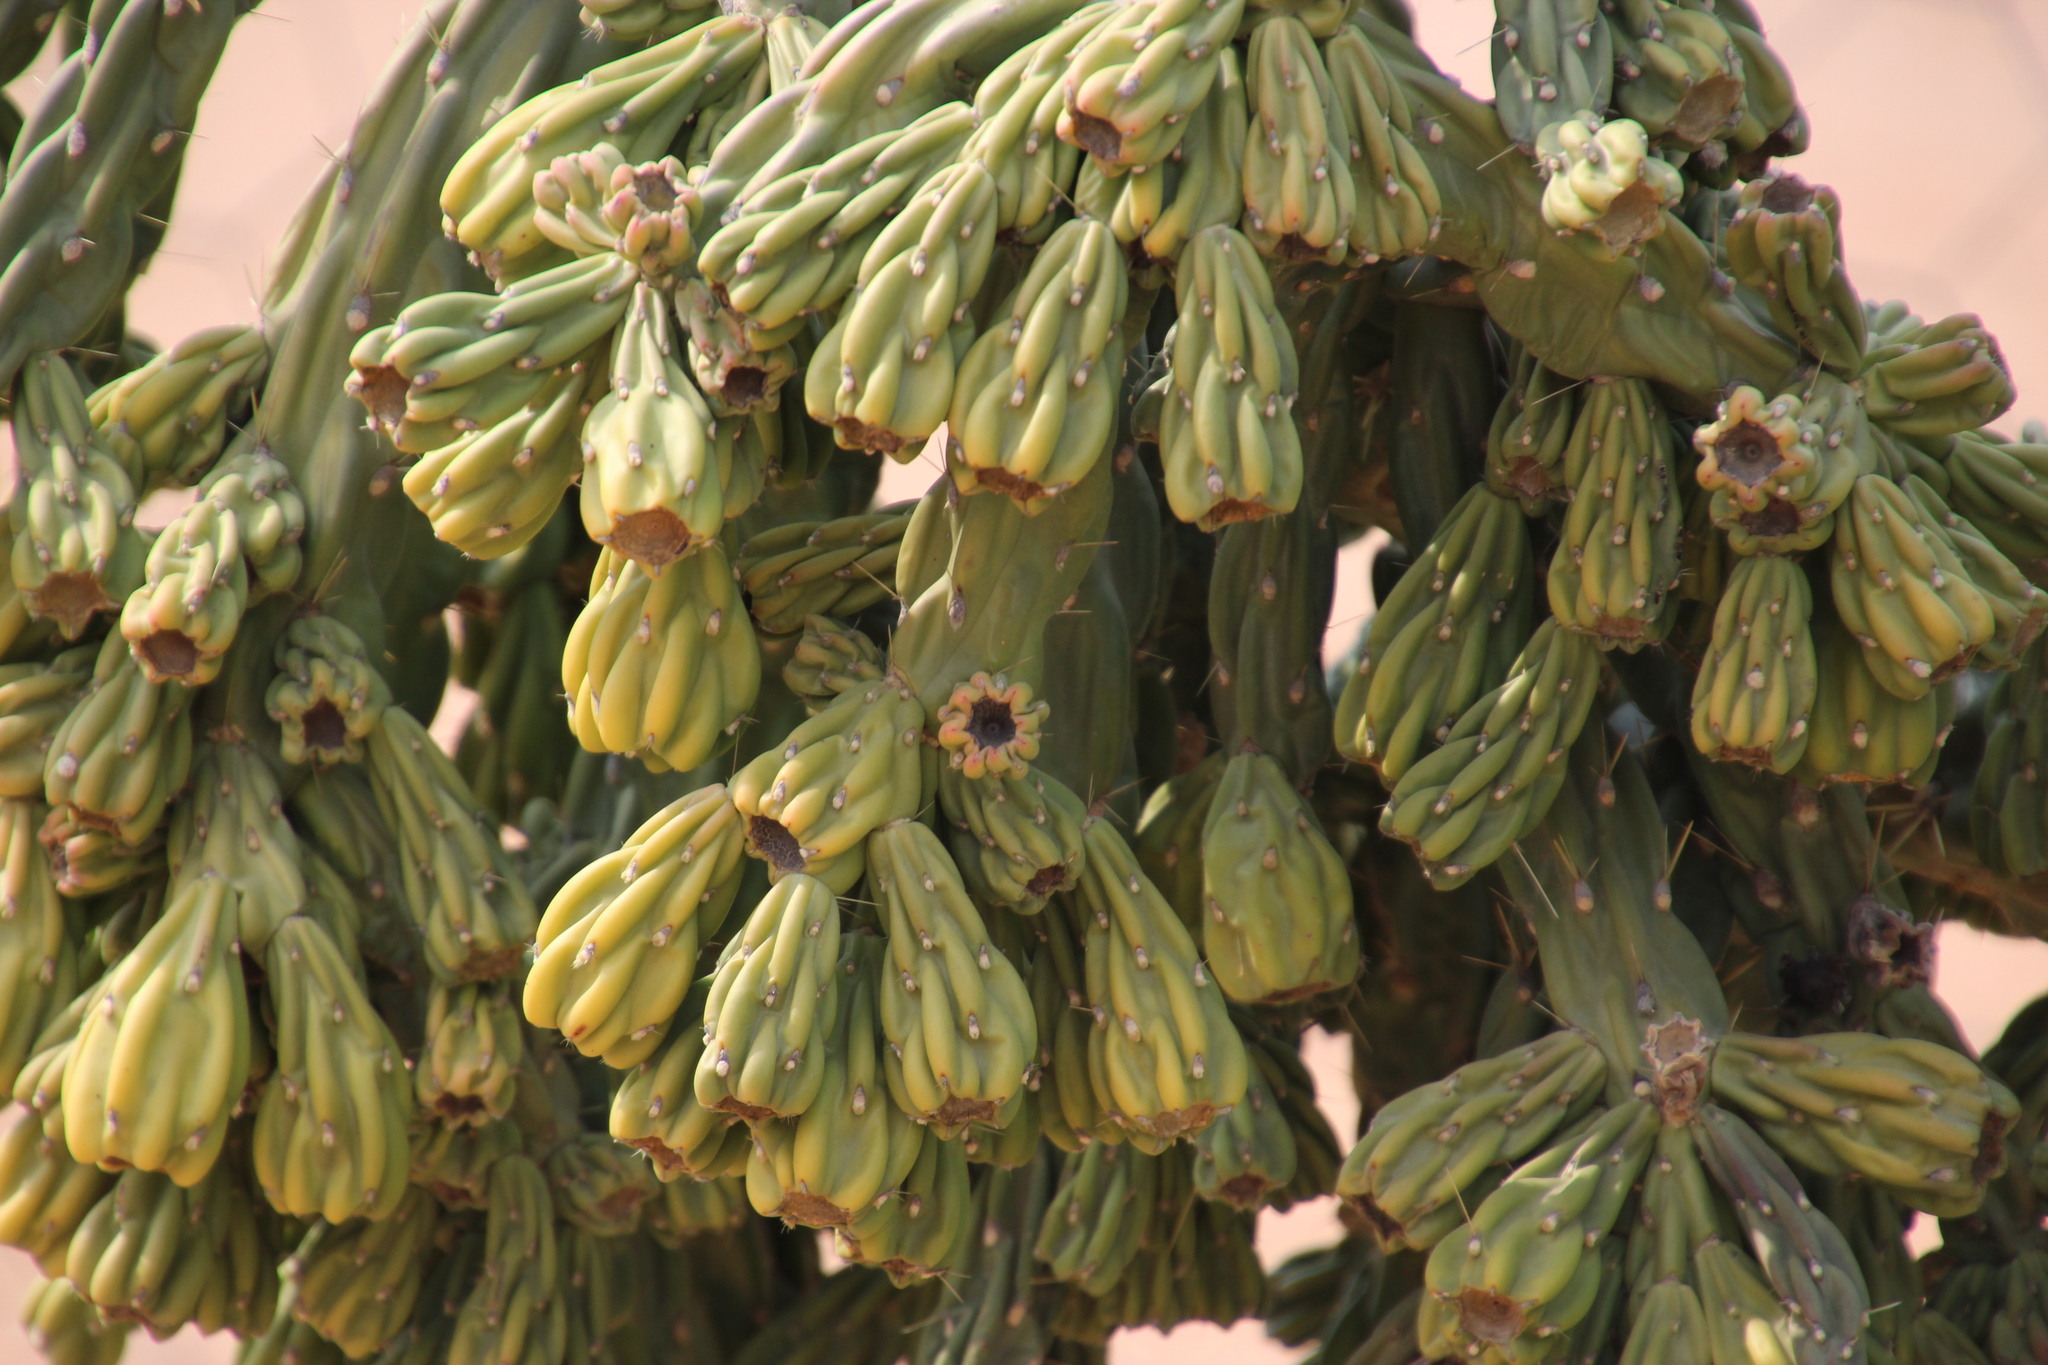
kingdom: Plantae
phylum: Tracheophyta
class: Magnoliopsida
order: Caryophyllales
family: Cactaceae
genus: Cylindropuntia
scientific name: Cylindropuntia imbricata
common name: Candelabrum cactus
